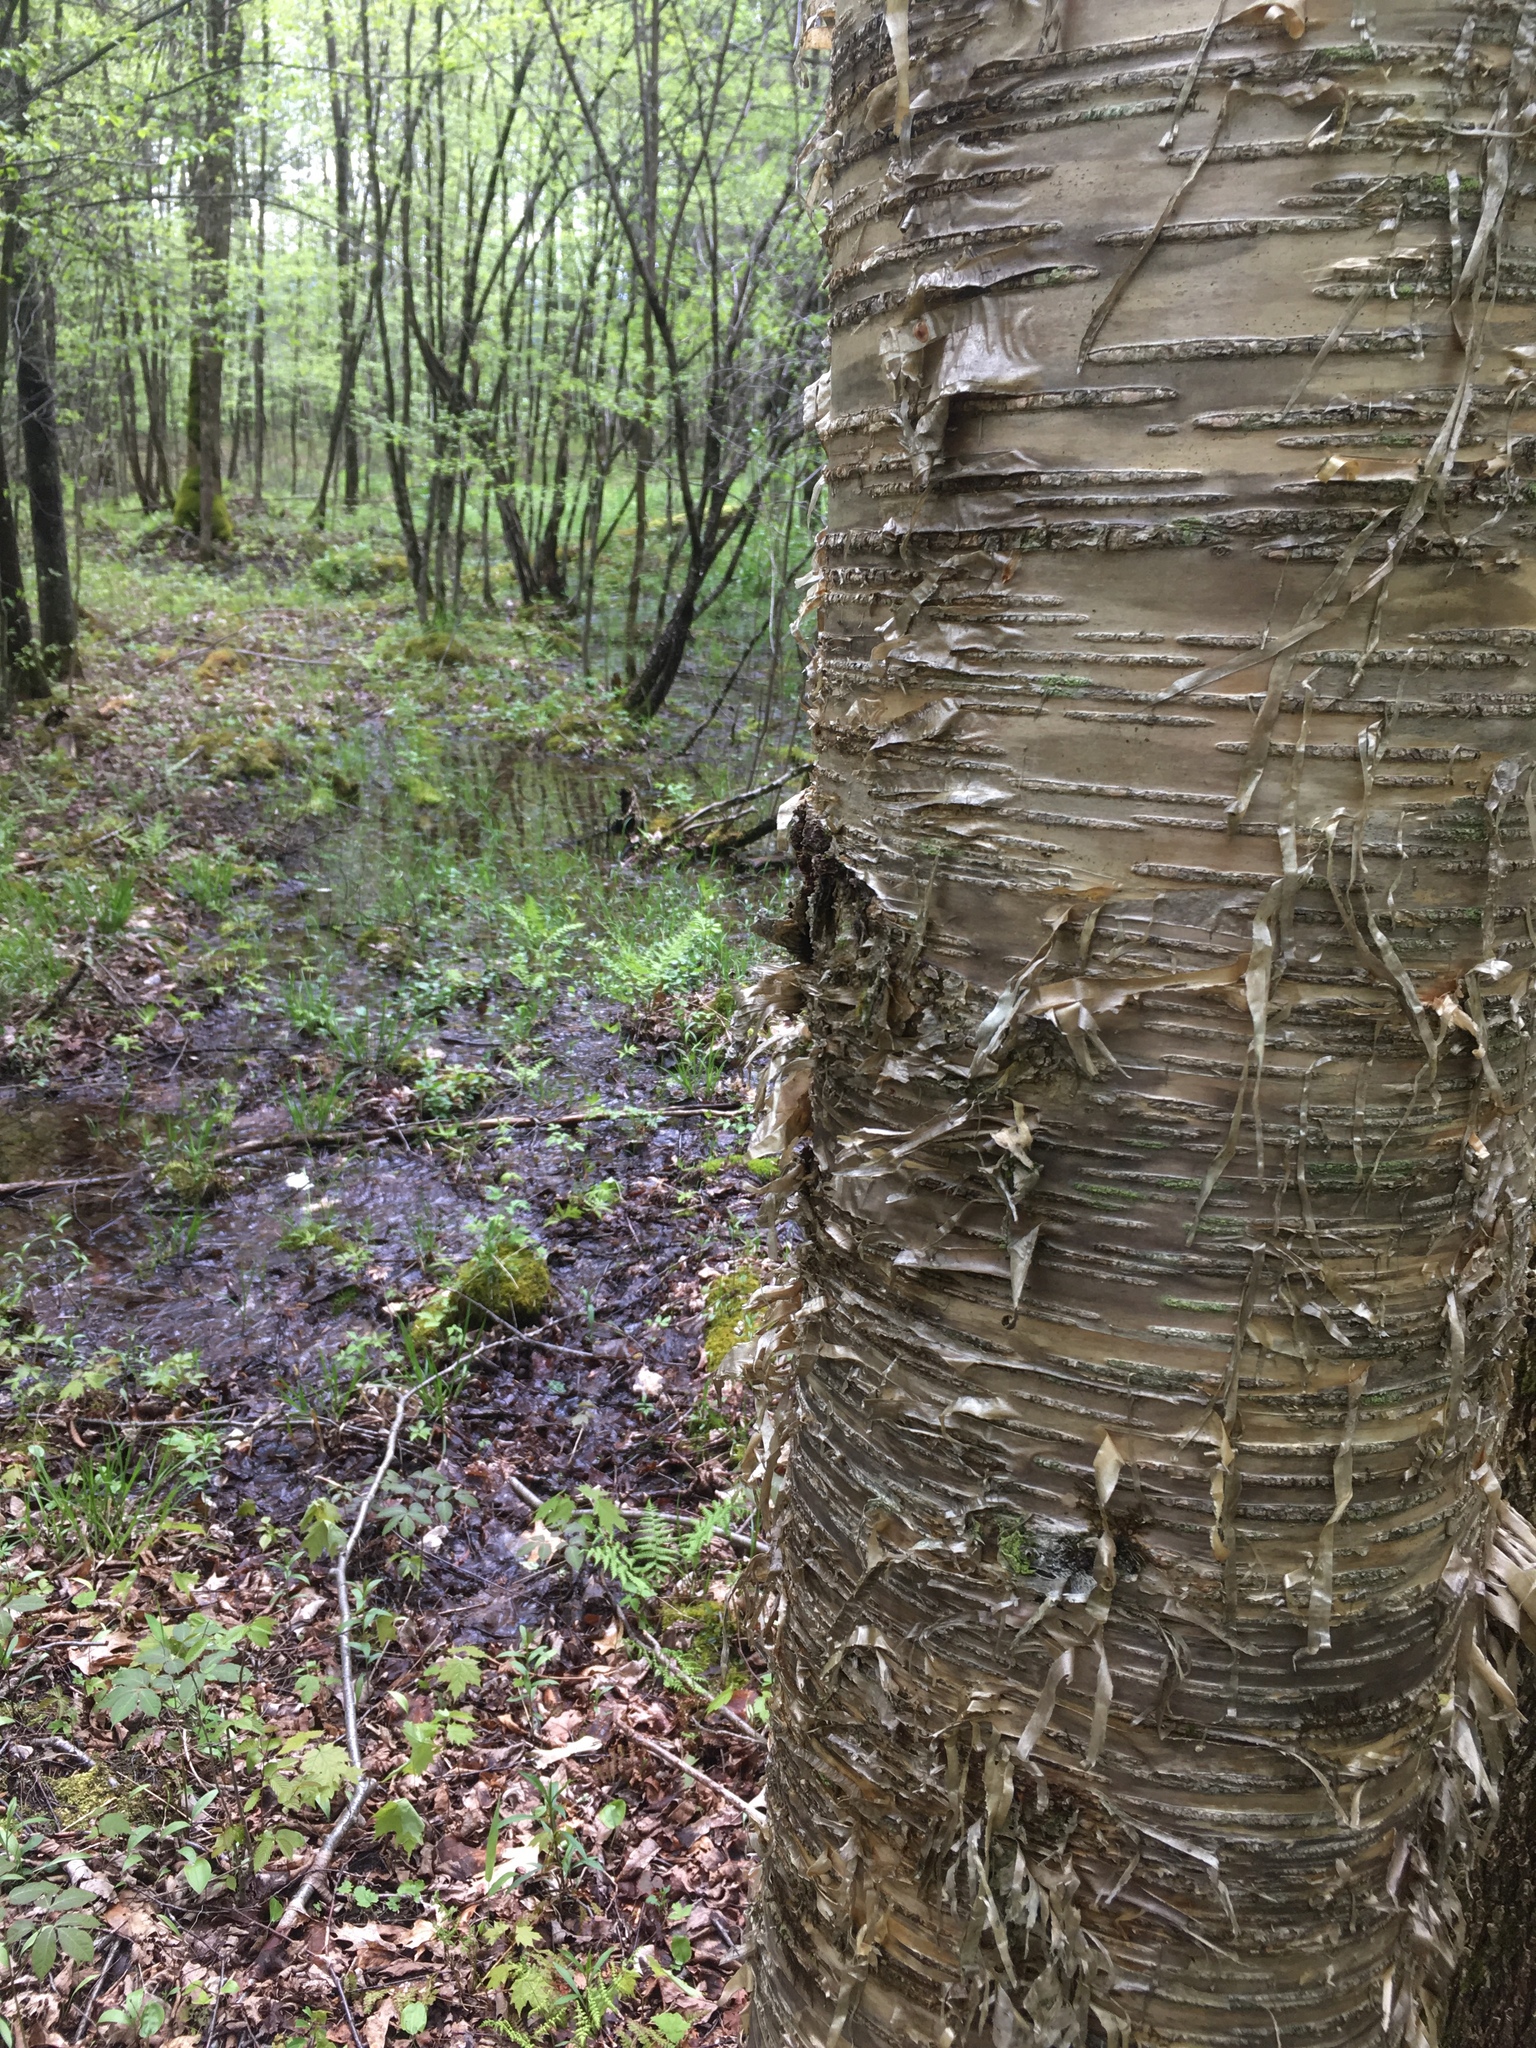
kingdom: Plantae
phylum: Tracheophyta
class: Magnoliopsida
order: Fagales
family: Betulaceae
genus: Betula
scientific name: Betula alleghaniensis
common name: Yellow birch
